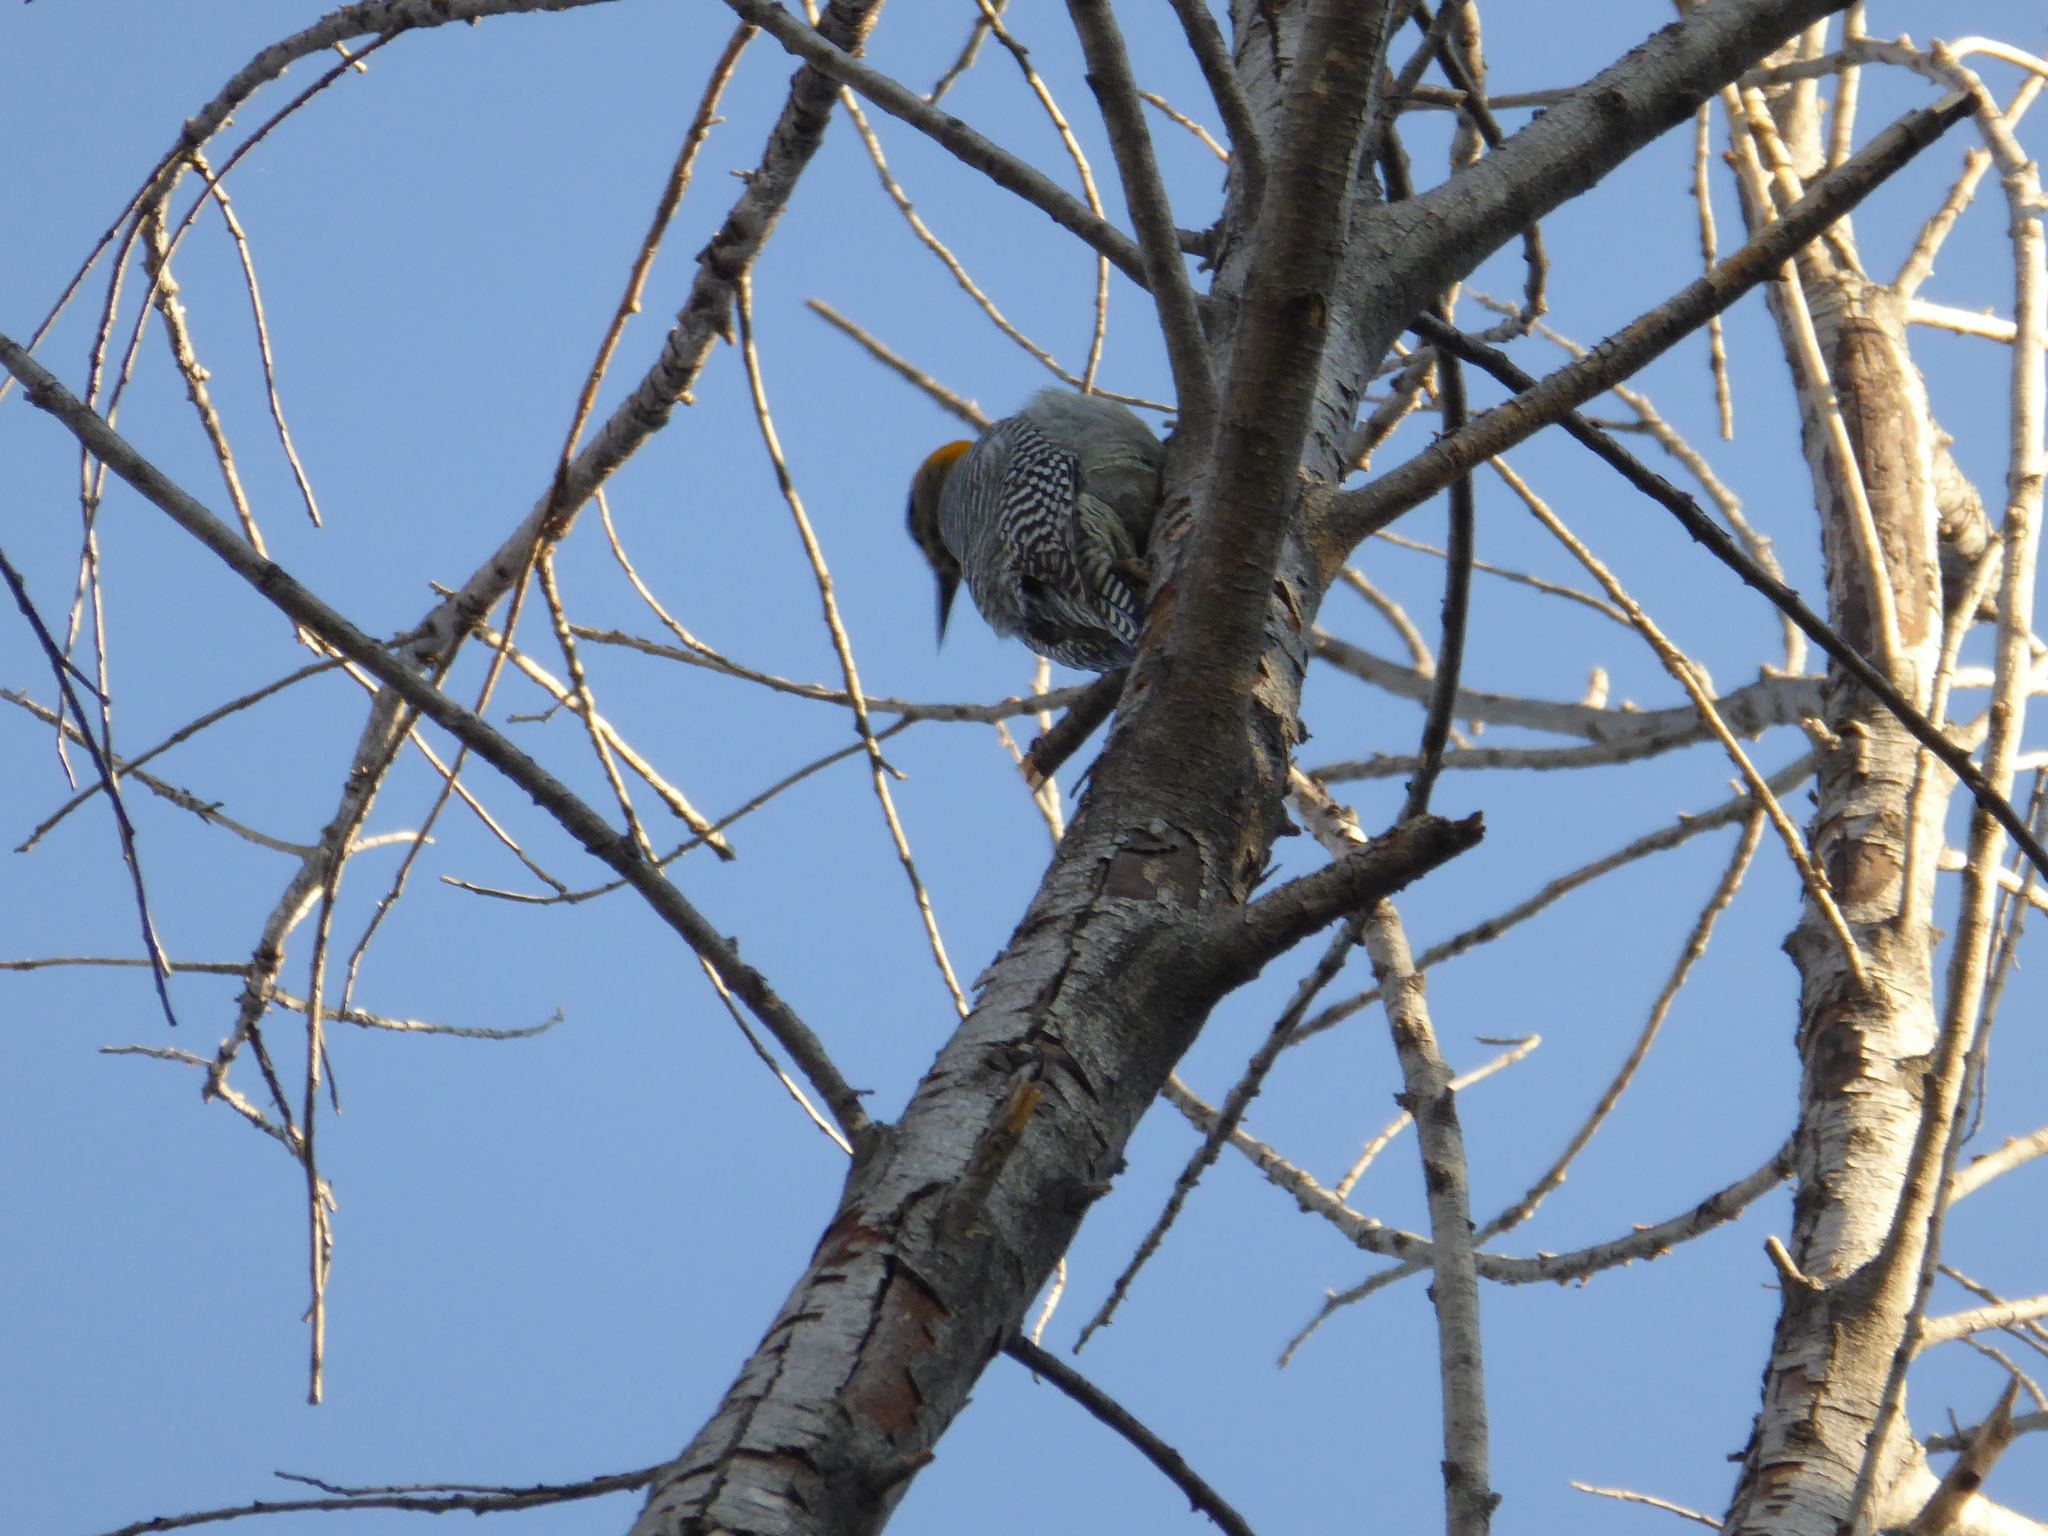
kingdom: Animalia
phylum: Chordata
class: Aves
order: Piciformes
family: Picidae
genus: Melanerpes
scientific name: Melanerpes chrysogenys
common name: Golden-cheeked woodpecker
